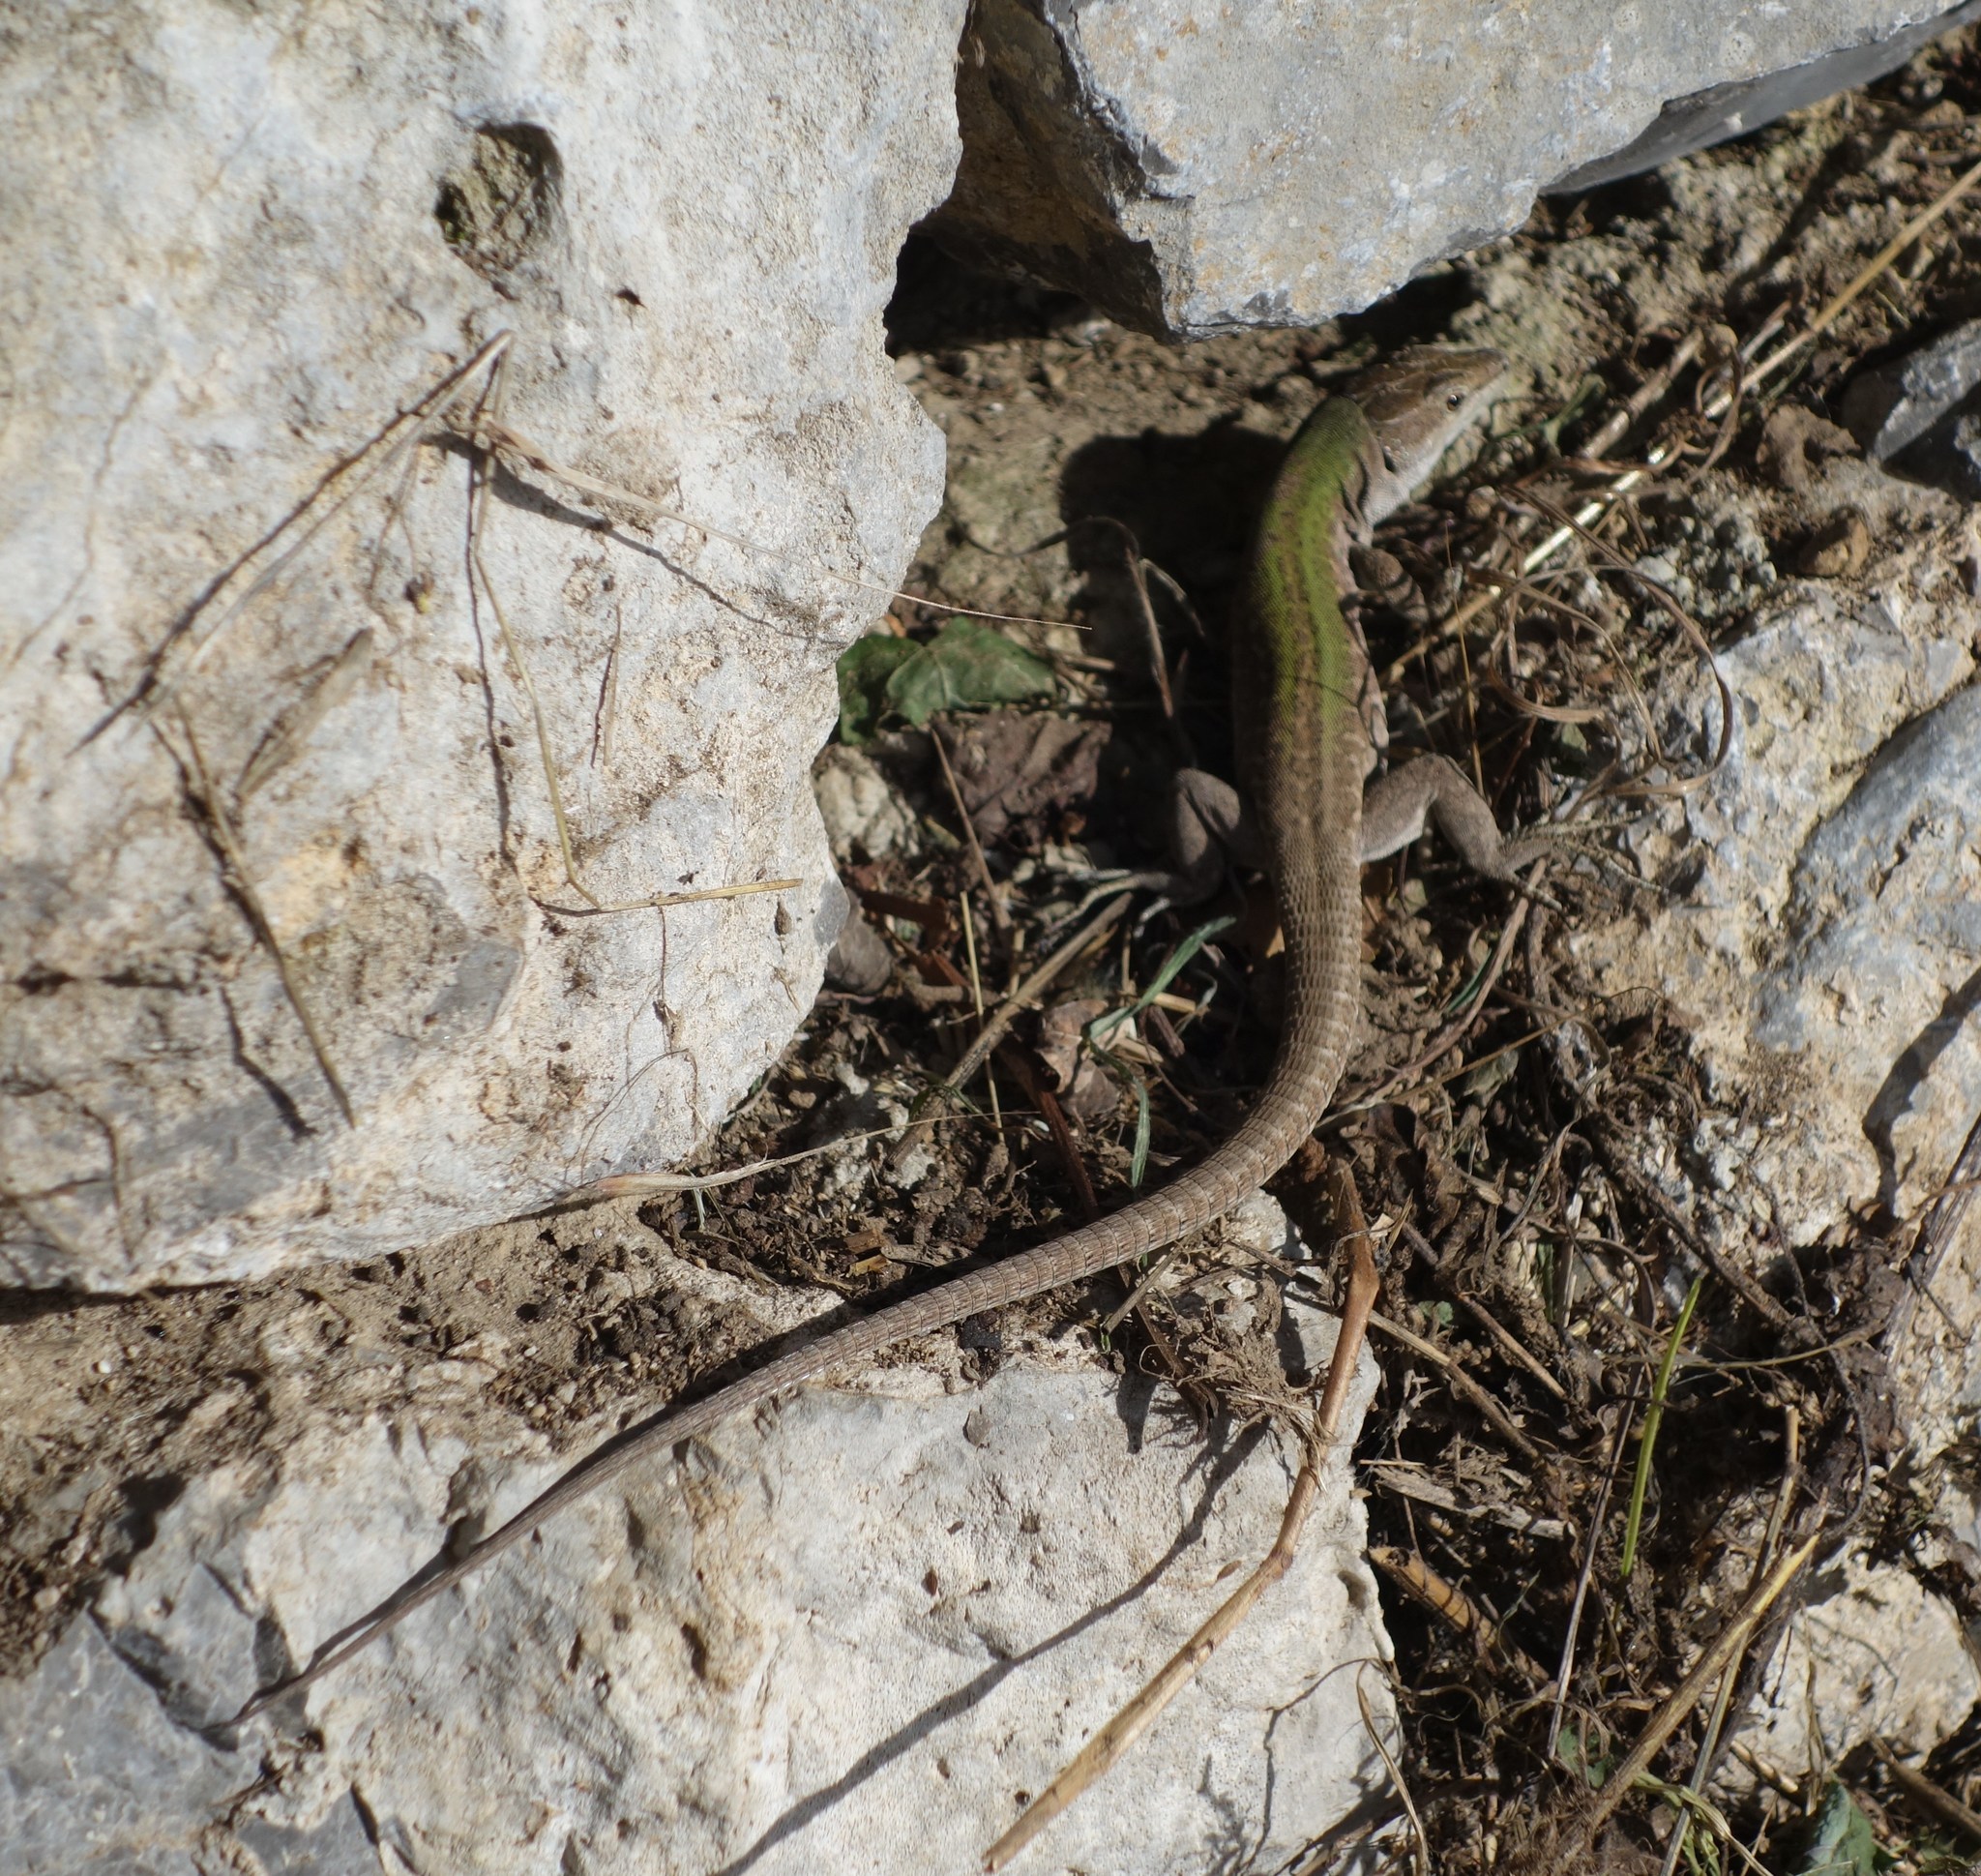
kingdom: Animalia
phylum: Chordata
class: Squamata
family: Lacertidae
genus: Podarcis
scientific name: Podarcis siculus
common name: Italian wall lizard
